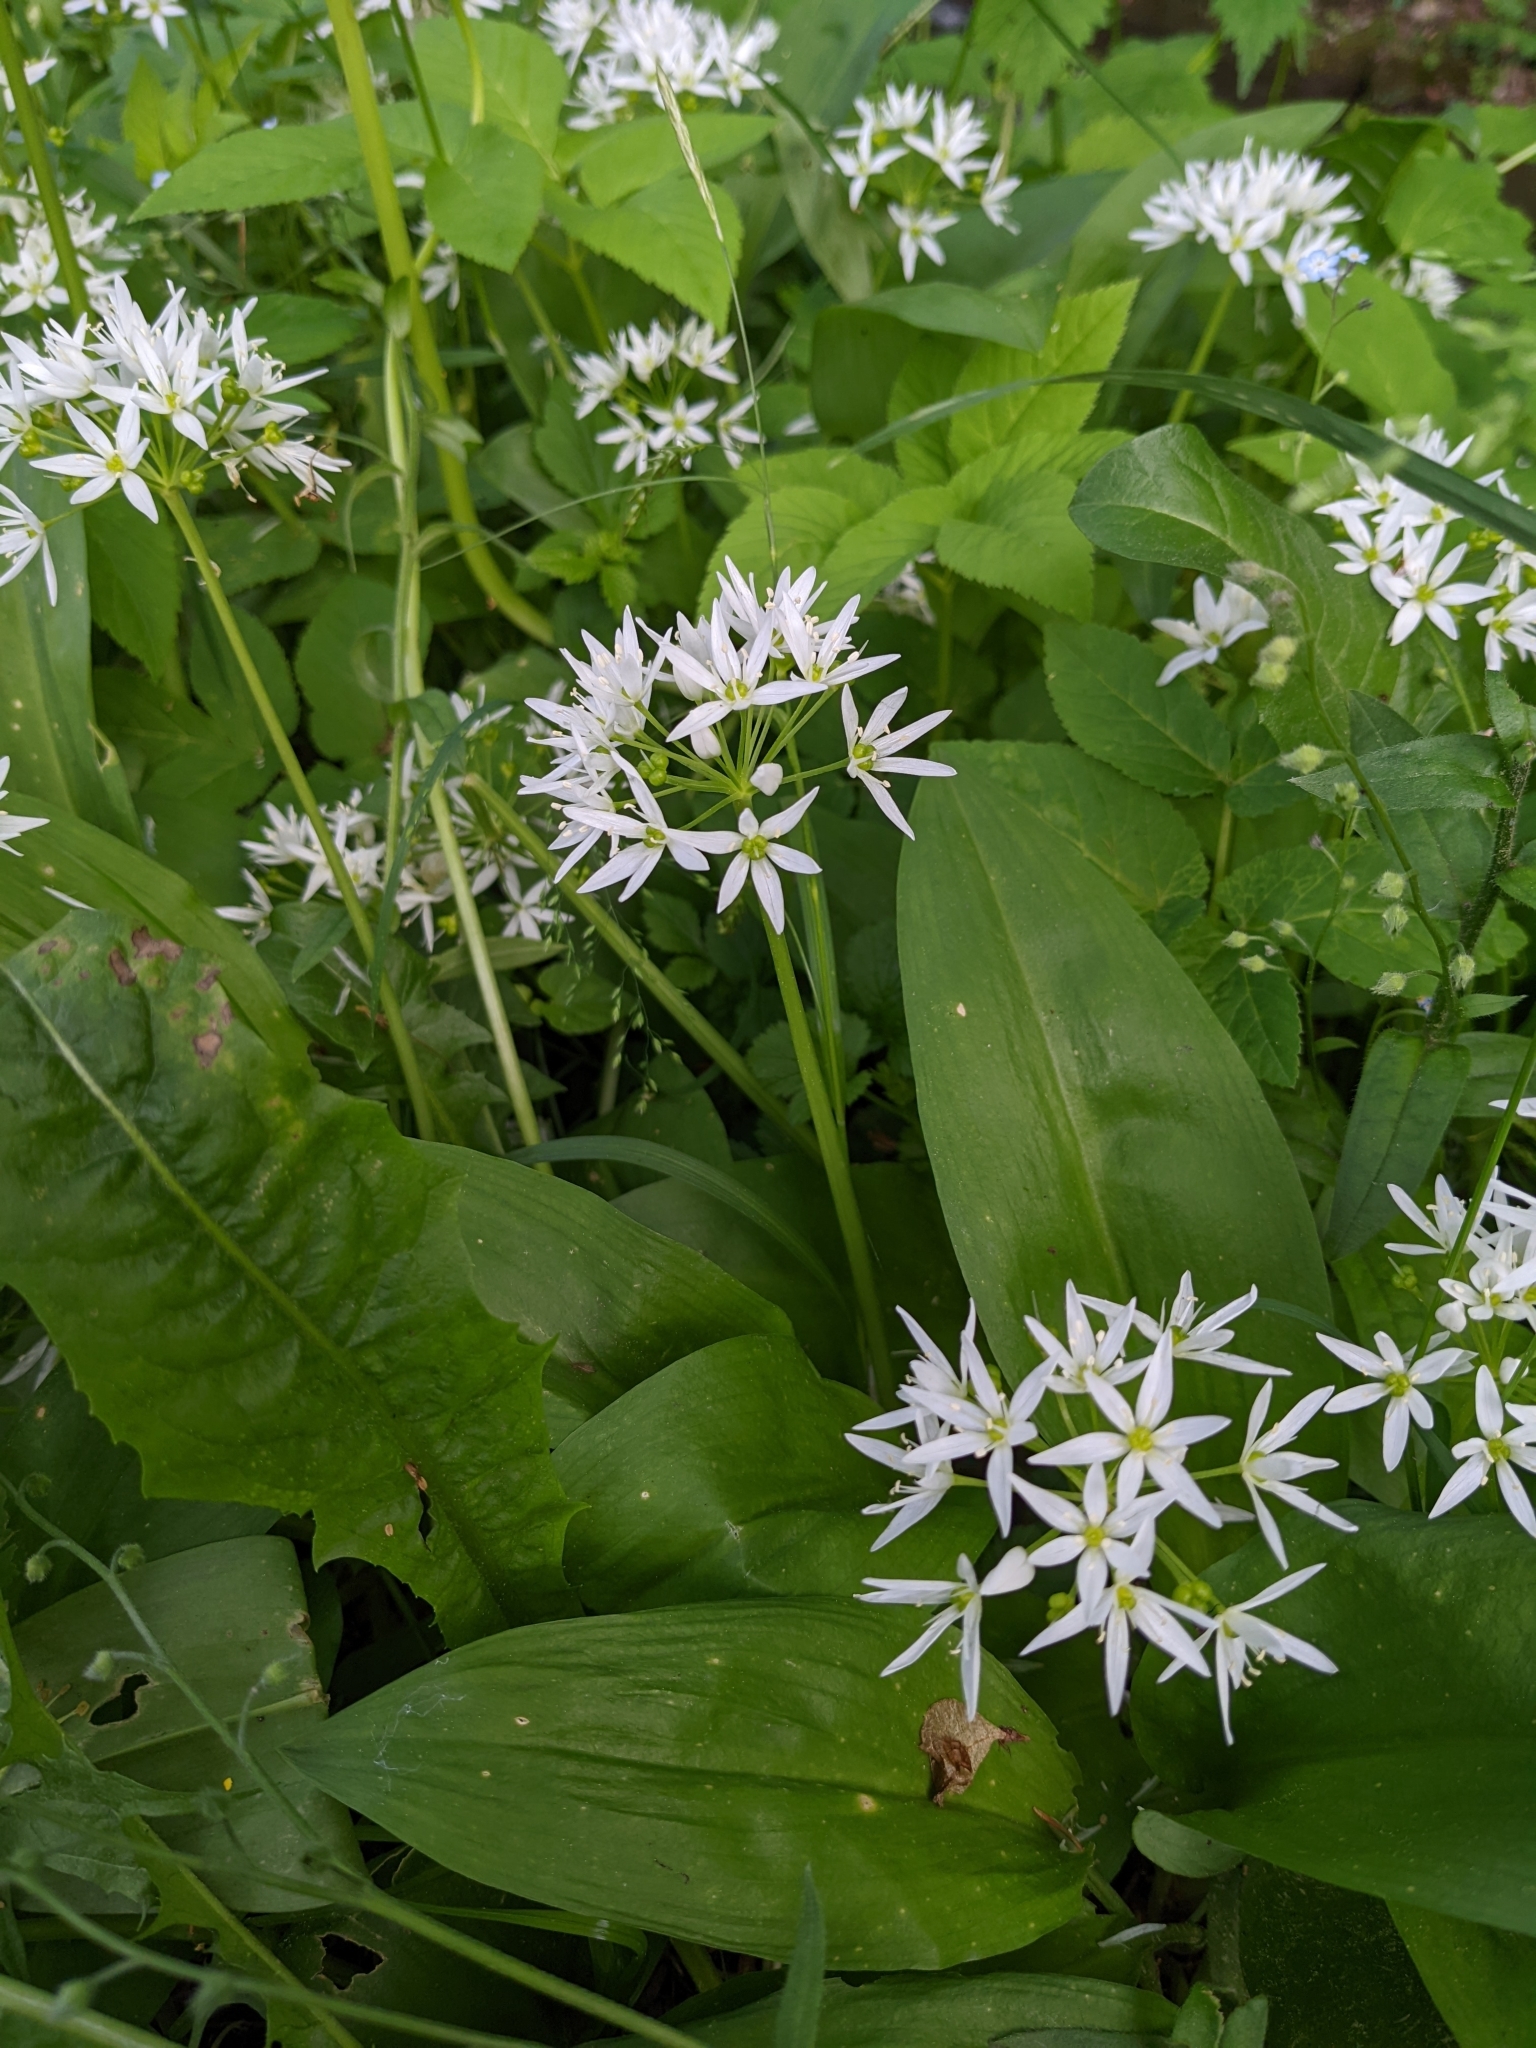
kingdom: Plantae
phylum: Tracheophyta
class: Liliopsida
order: Asparagales
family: Amaryllidaceae
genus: Allium
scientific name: Allium ursinum
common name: Ramsons
